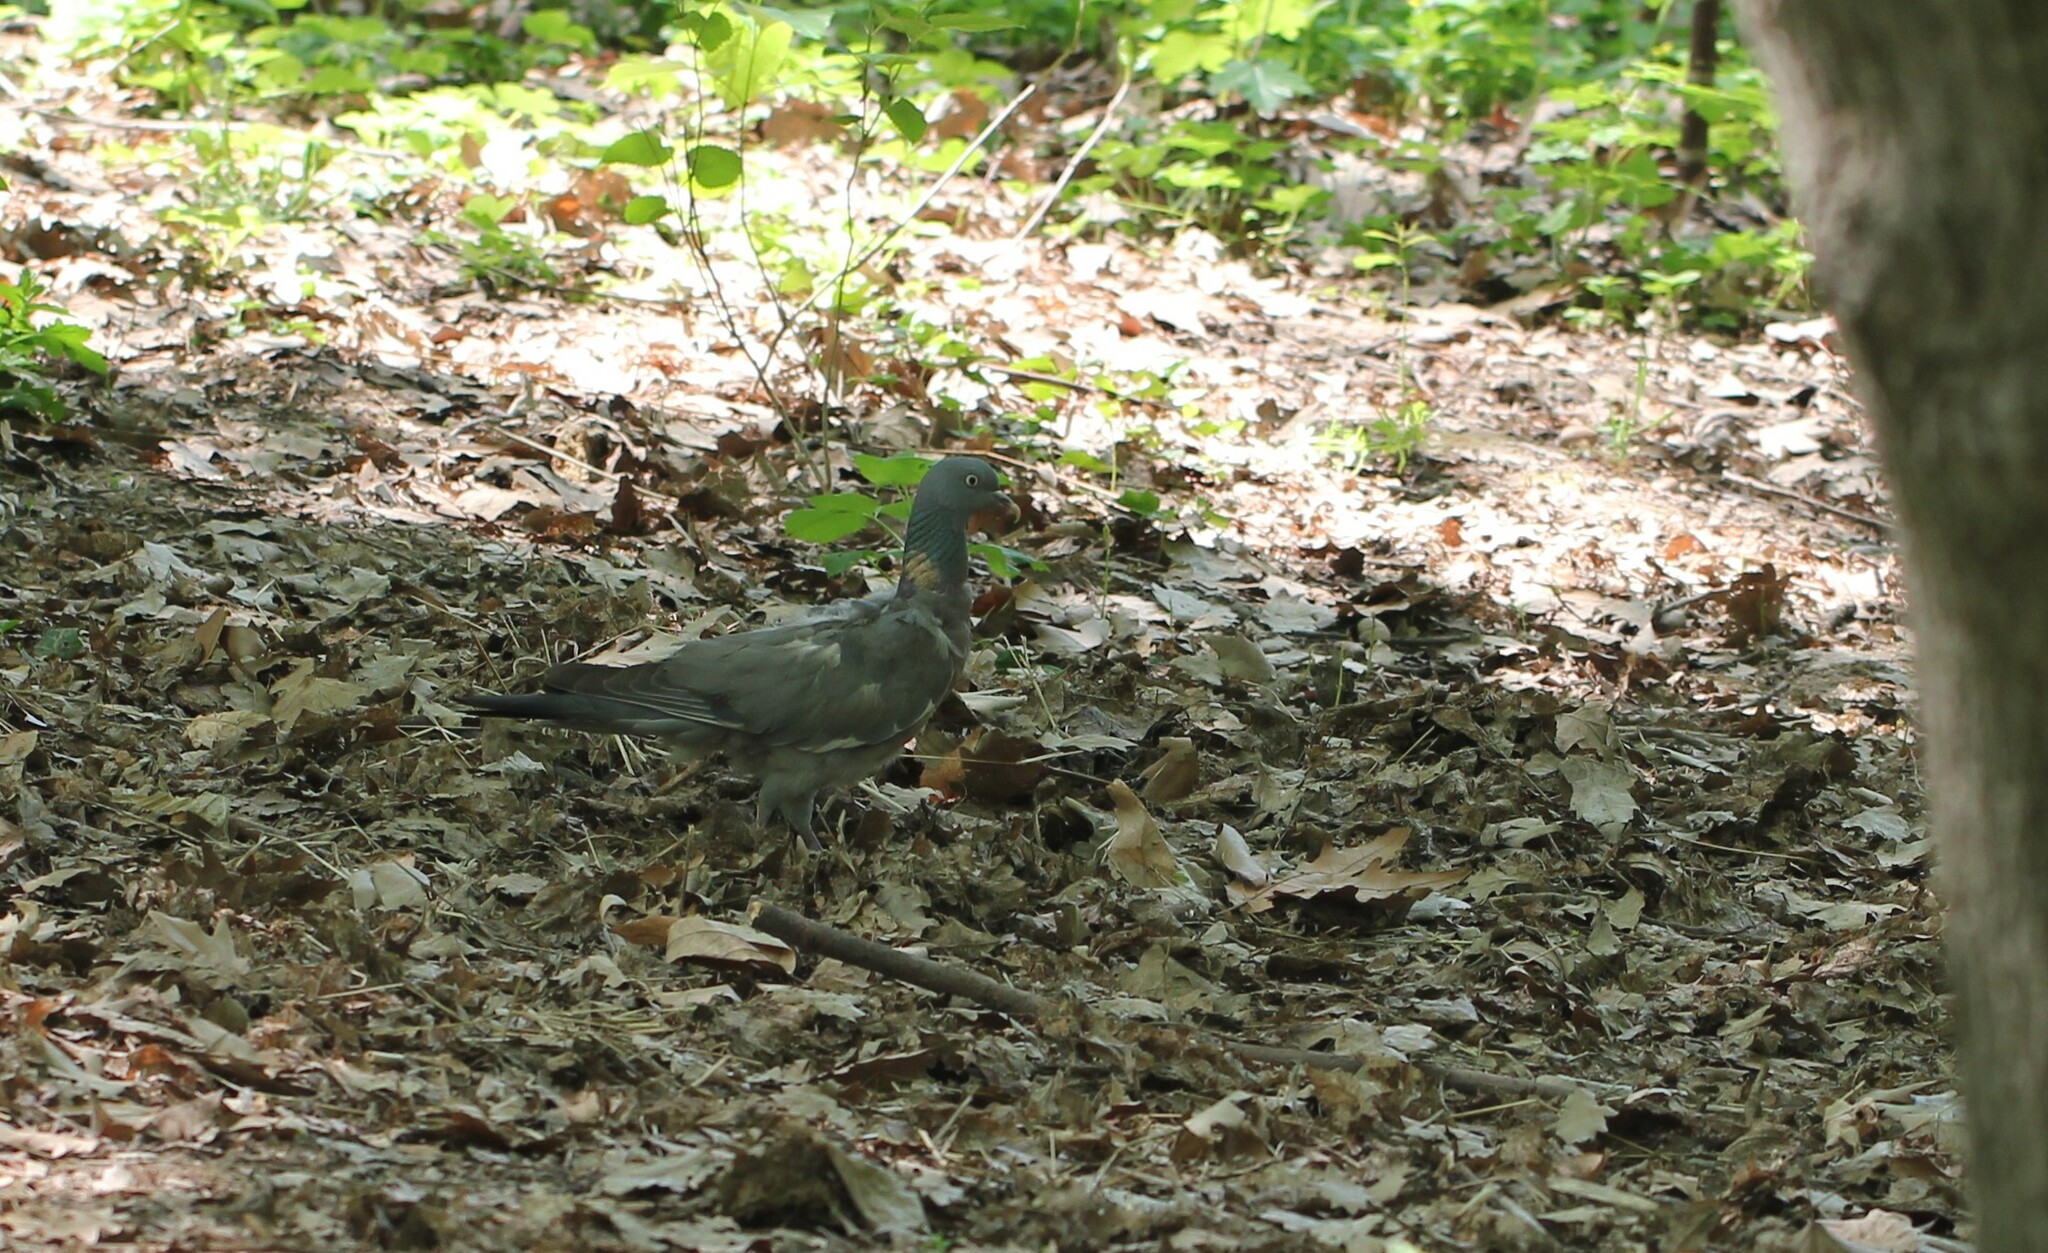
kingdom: Animalia
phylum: Chordata
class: Aves
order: Columbiformes
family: Columbidae
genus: Columba
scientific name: Columba palumbus
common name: Common wood pigeon
